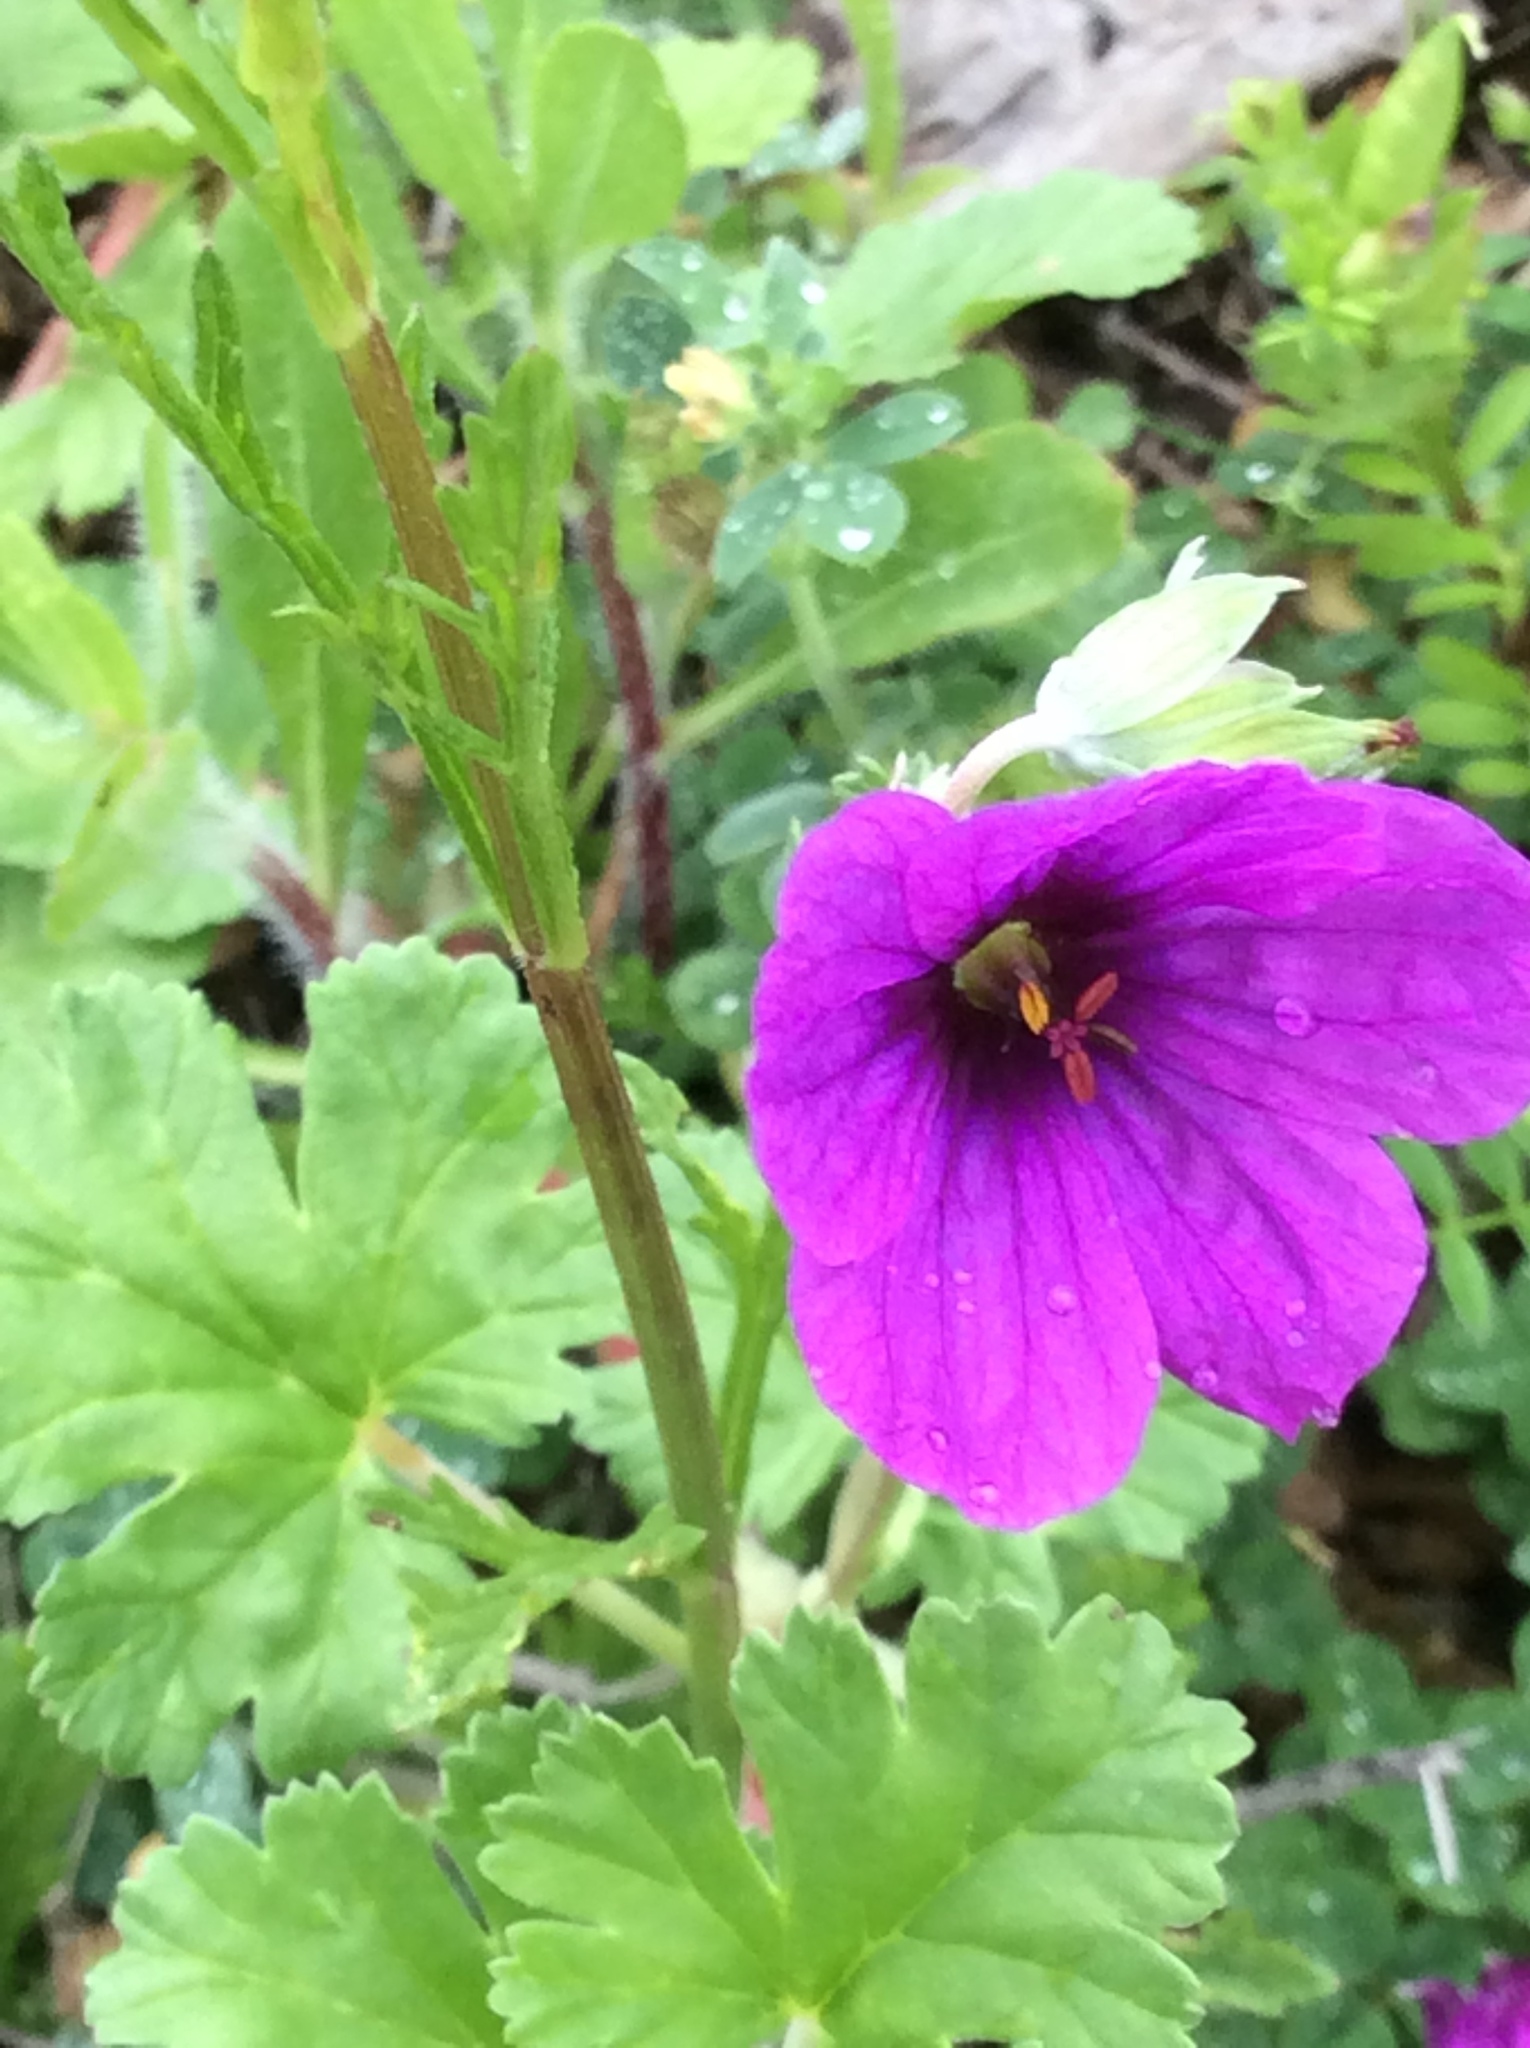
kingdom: Plantae
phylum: Tracheophyta
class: Magnoliopsida
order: Geraniales
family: Geraniaceae
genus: Erodium
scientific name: Erodium texanum
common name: Texas stork's-bill
